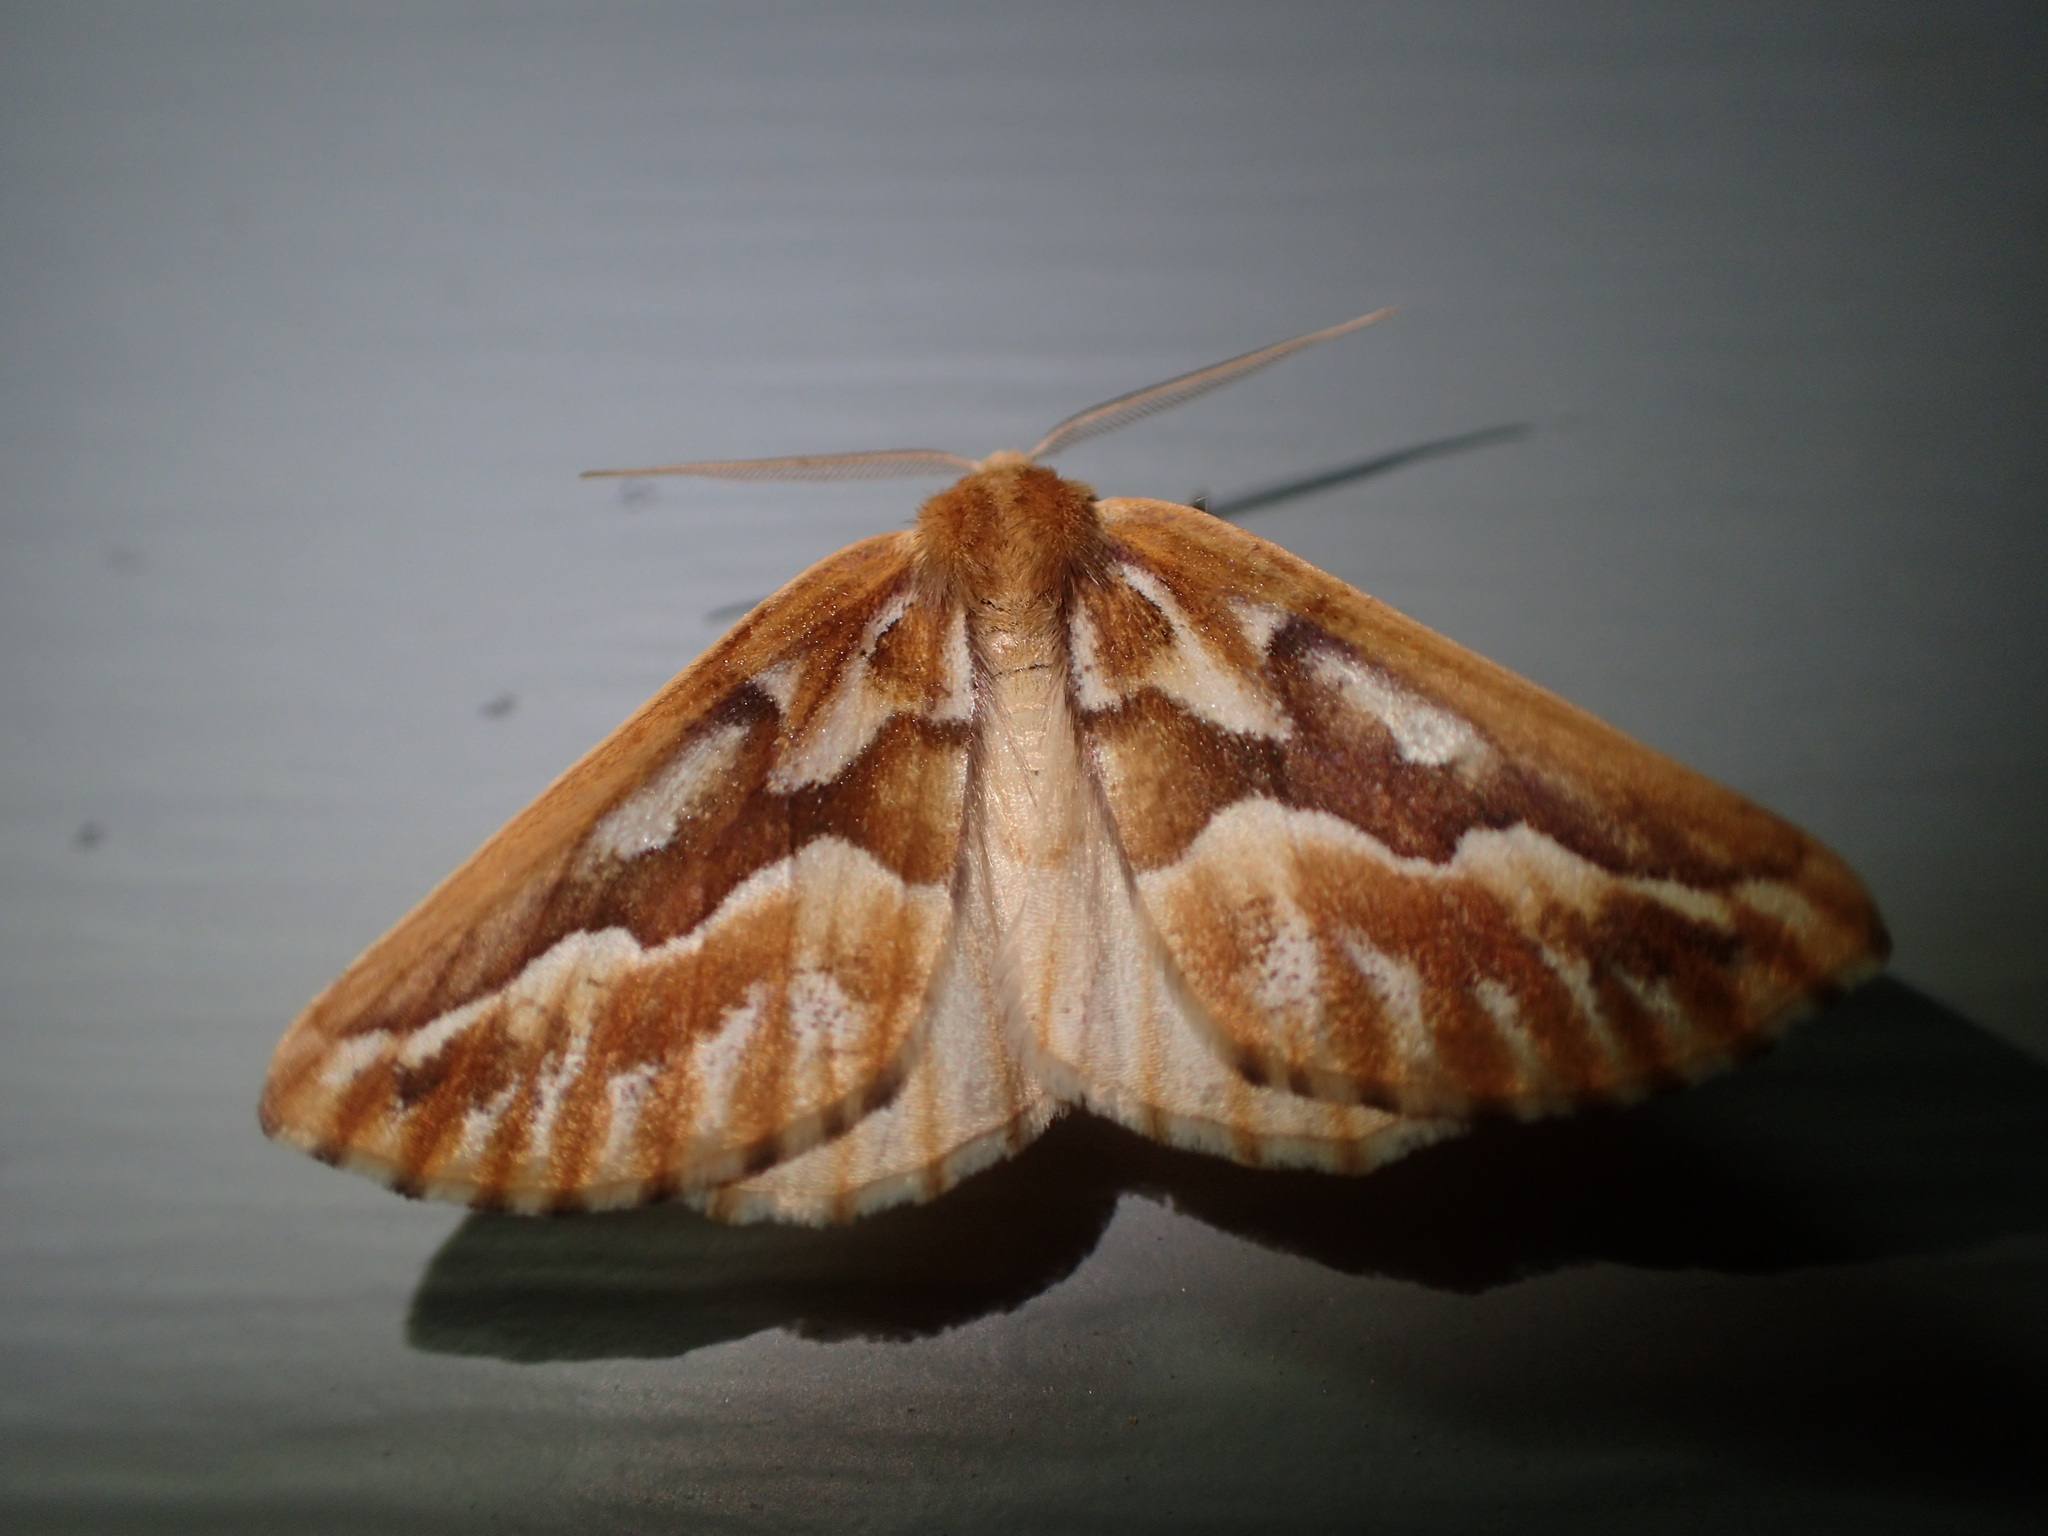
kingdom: Animalia
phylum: Arthropoda
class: Insecta
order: Lepidoptera
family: Geometridae
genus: Caripeta
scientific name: Caripeta piniata
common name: Northern pine looper moth
